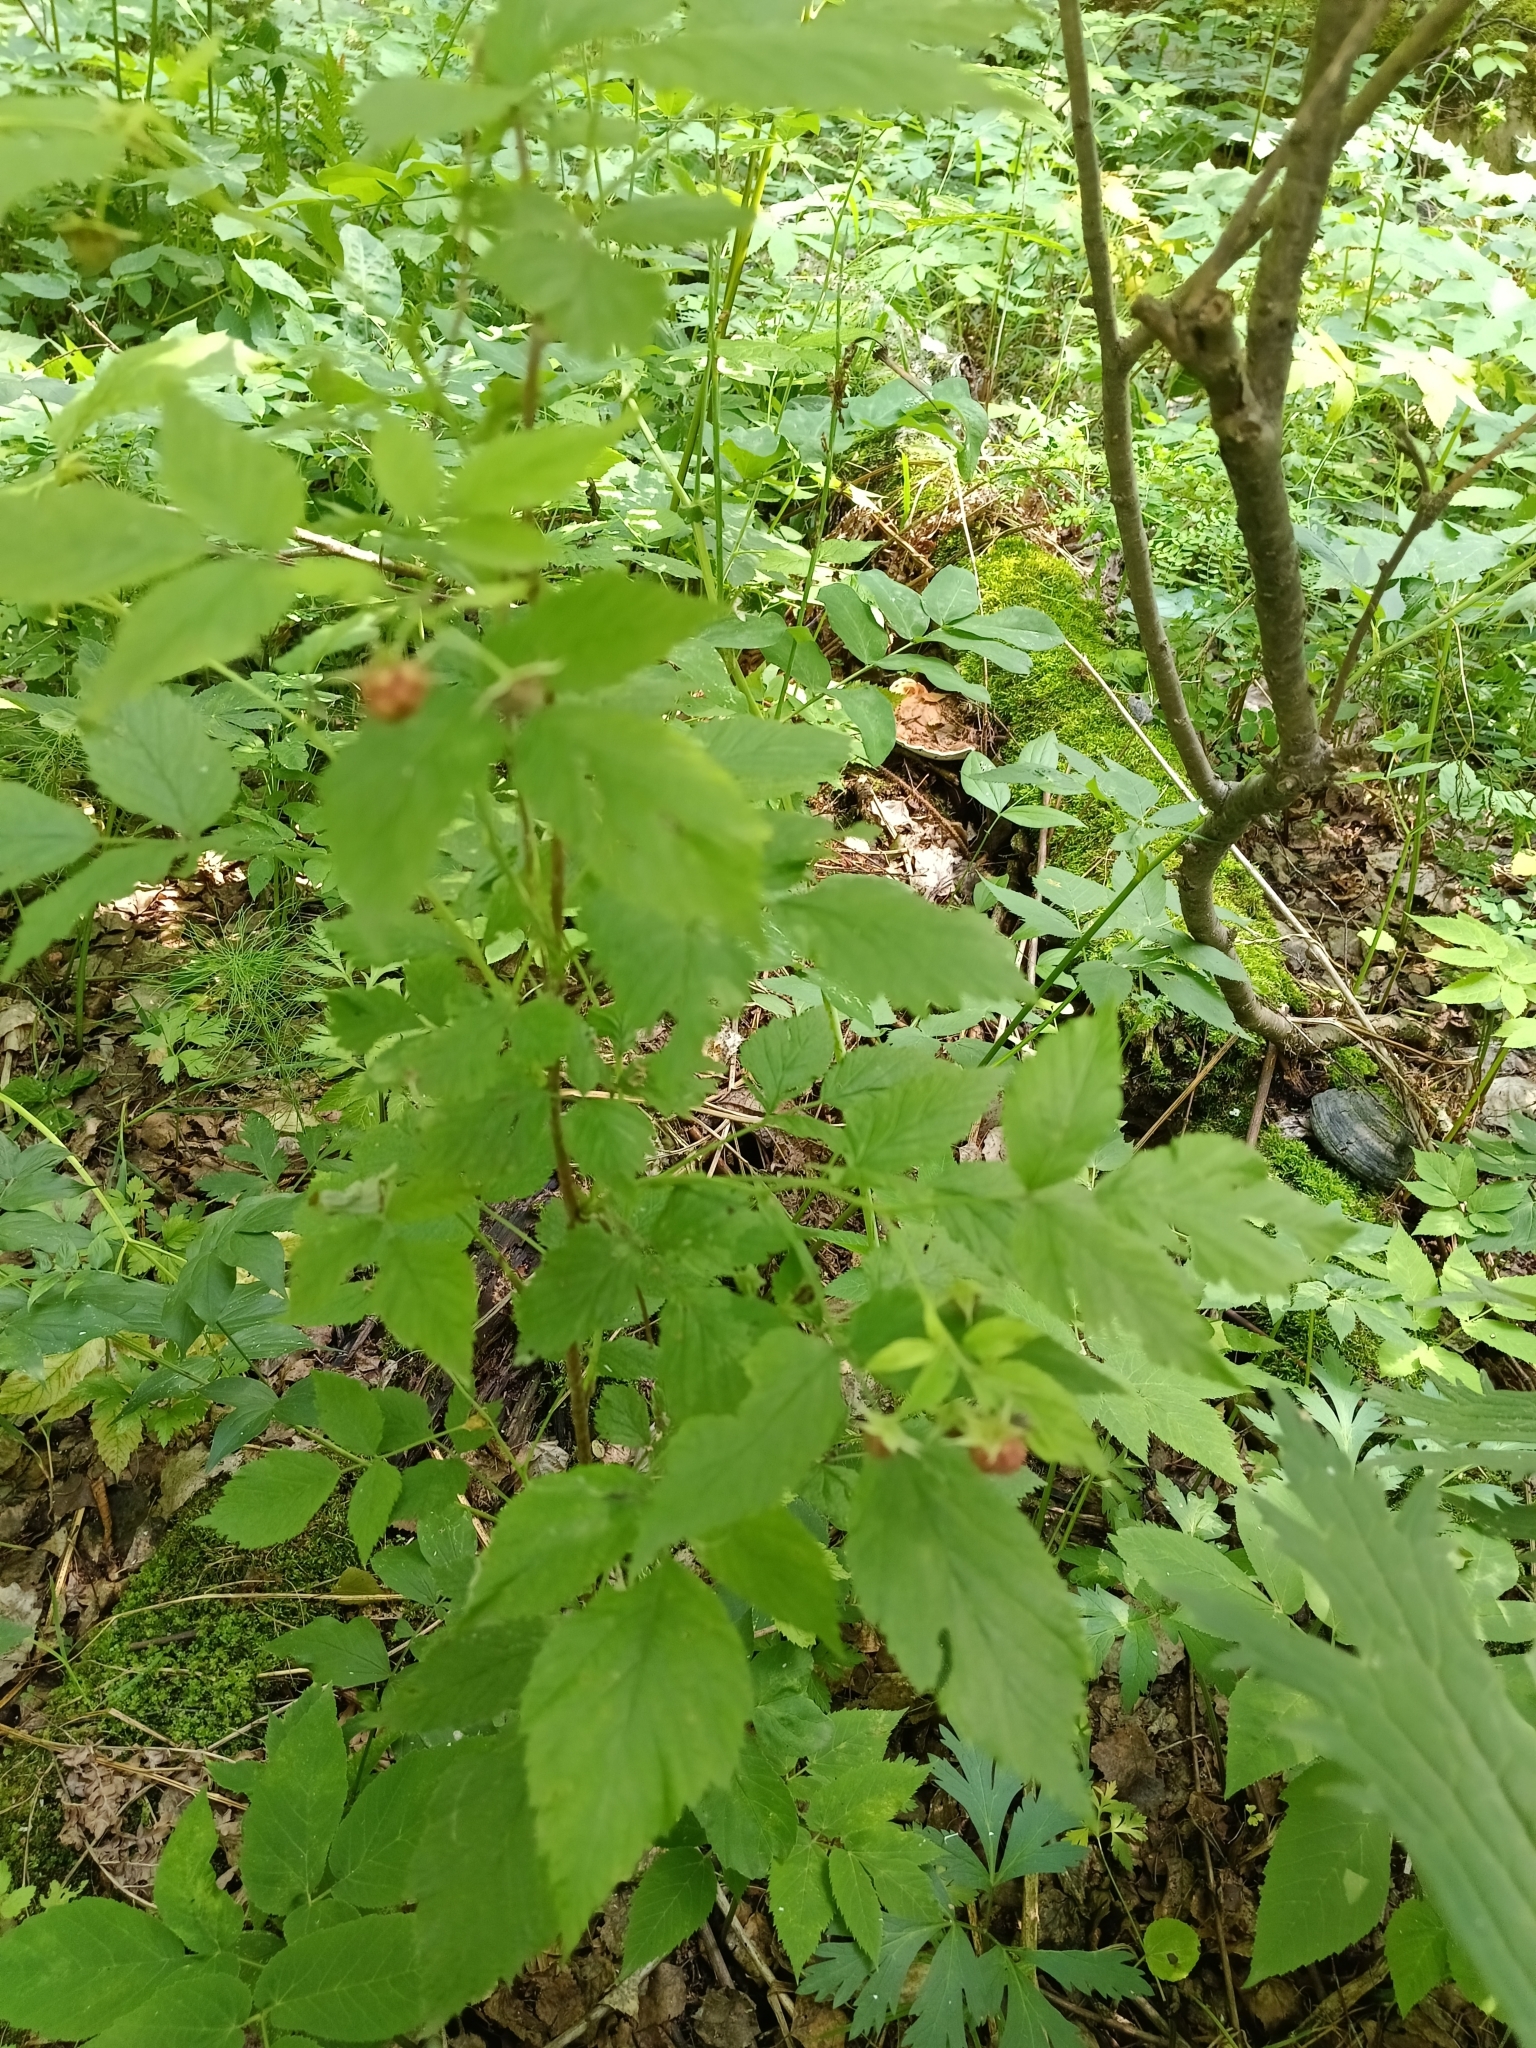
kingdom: Plantae
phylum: Tracheophyta
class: Magnoliopsida
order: Rosales
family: Rosaceae
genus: Rubus
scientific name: Rubus idaeus
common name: Raspberry
